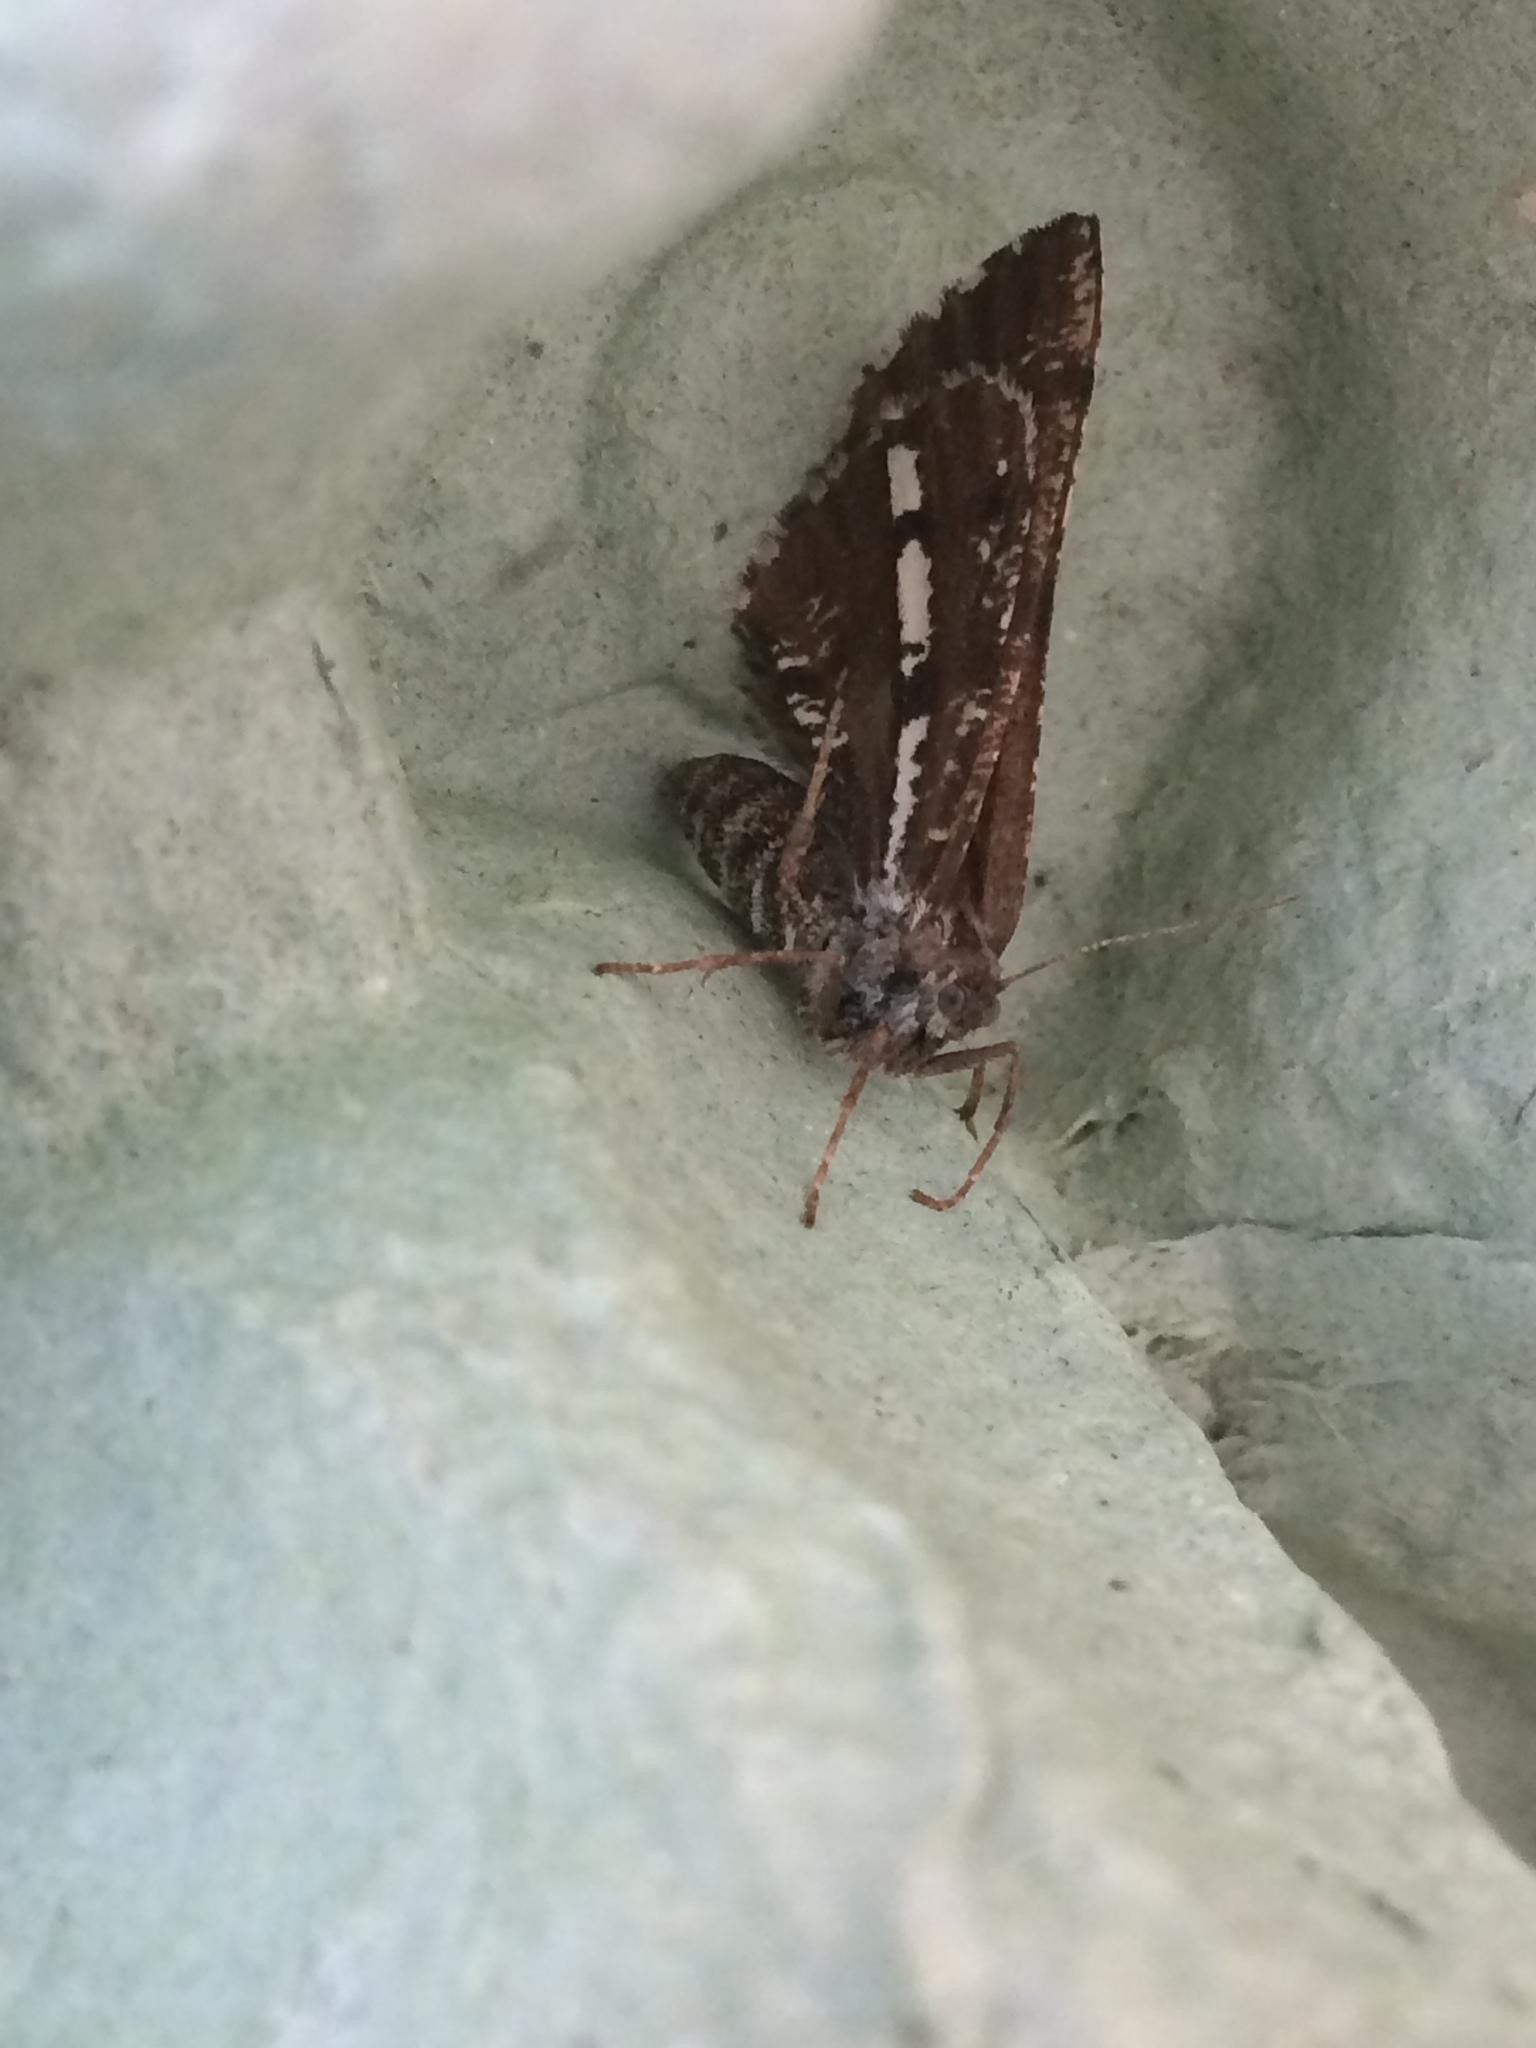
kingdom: Animalia
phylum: Arthropoda
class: Insecta
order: Lepidoptera
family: Geometridae
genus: Bupalus
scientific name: Bupalus piniaria
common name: Bordered white
